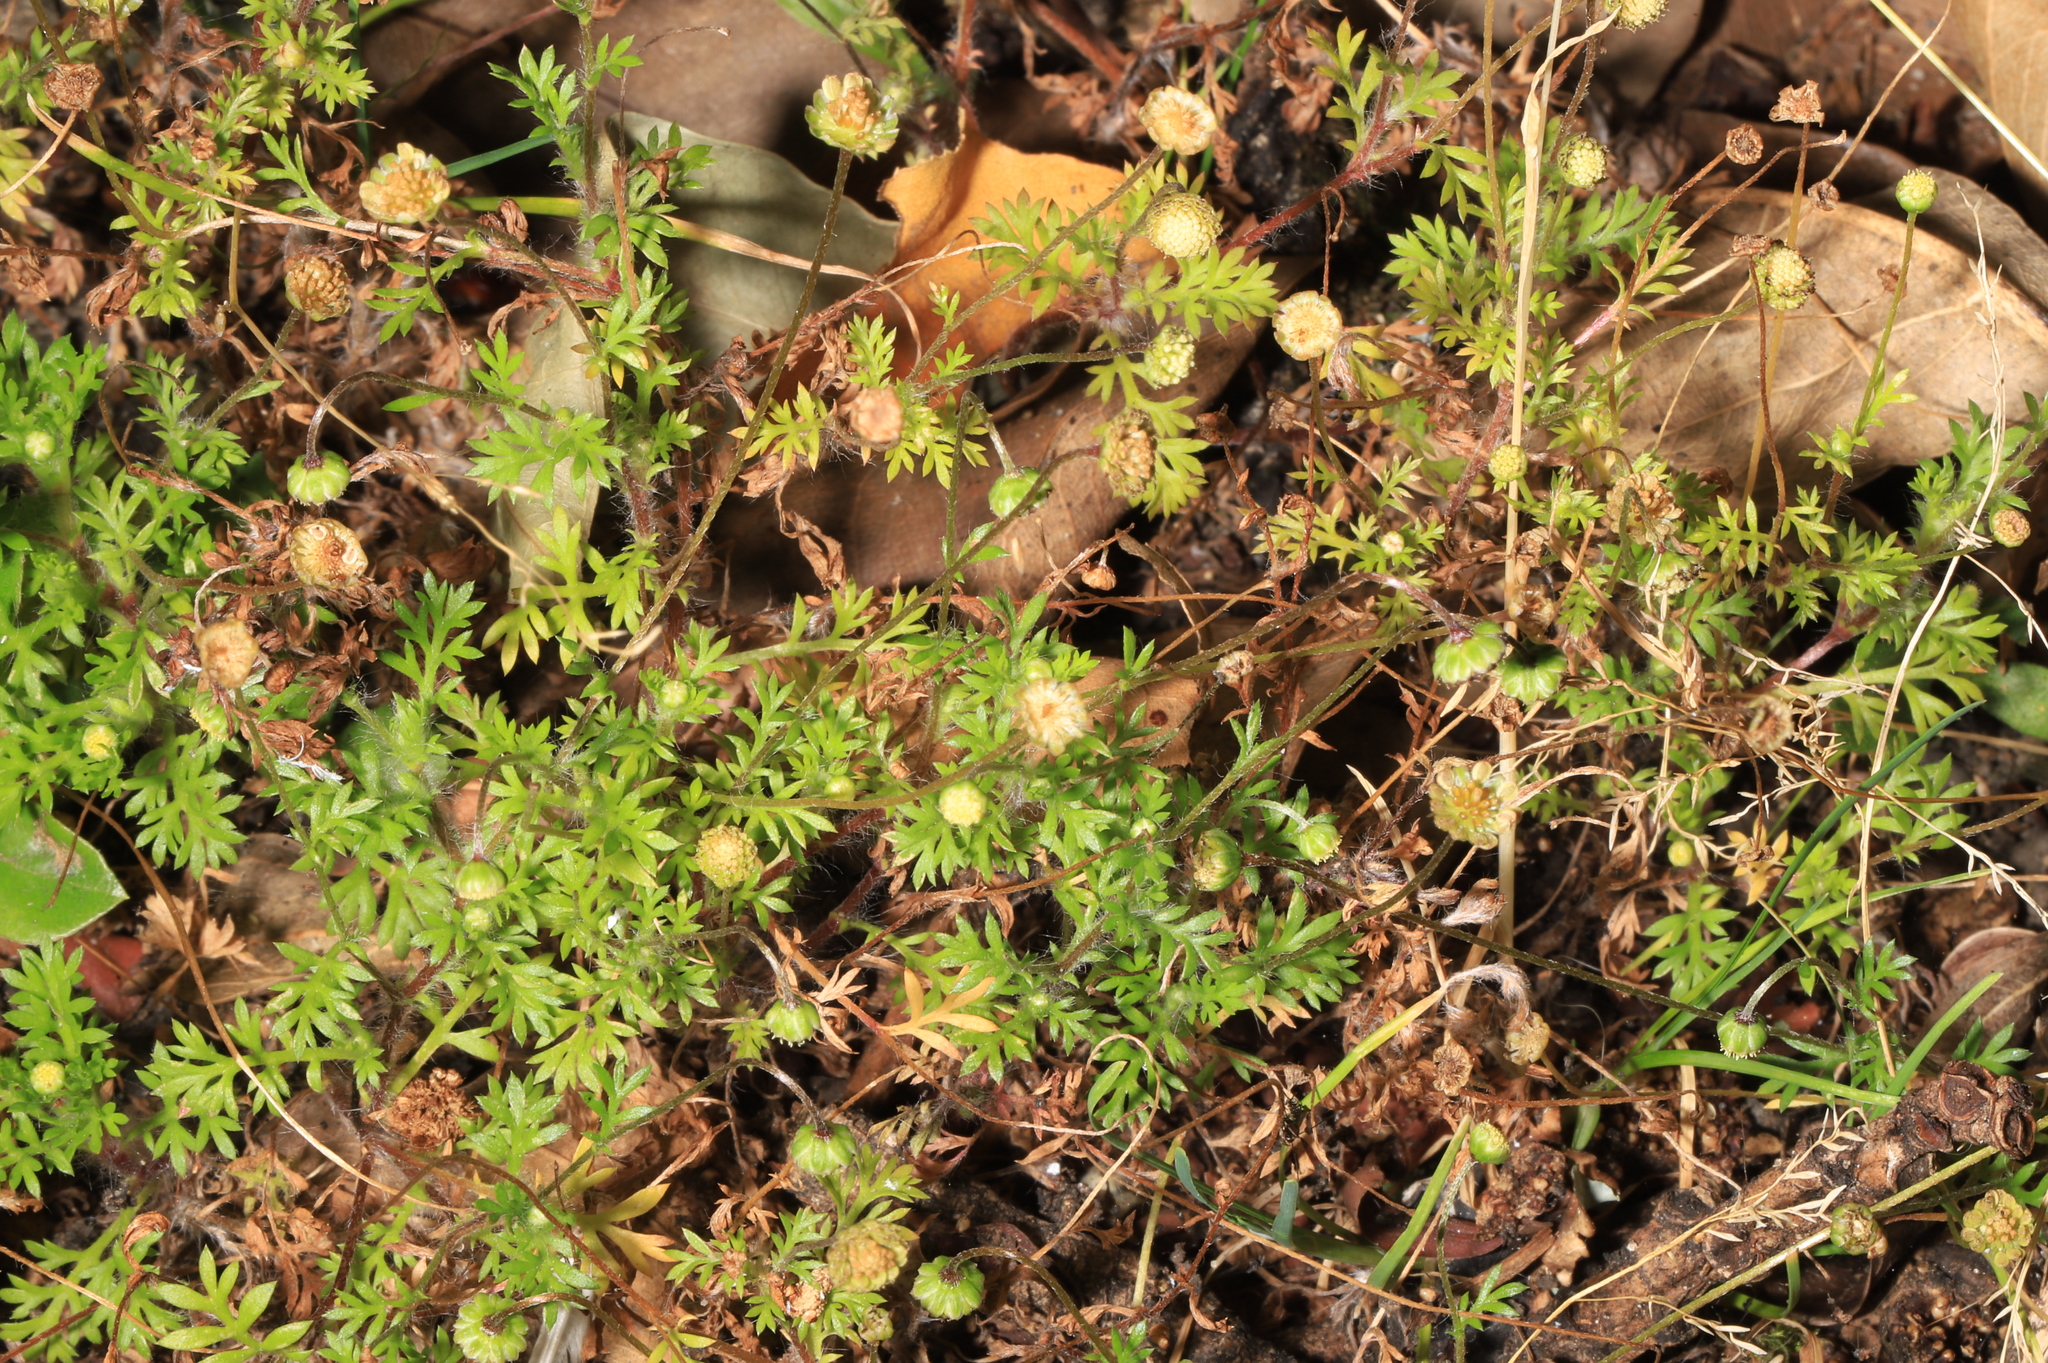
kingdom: Plantae
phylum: Tracheophyta
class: Magnoliopsida
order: Asterales
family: Asteraceae
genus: Cotula
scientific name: Cotula australis
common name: Australian waterbuttons
